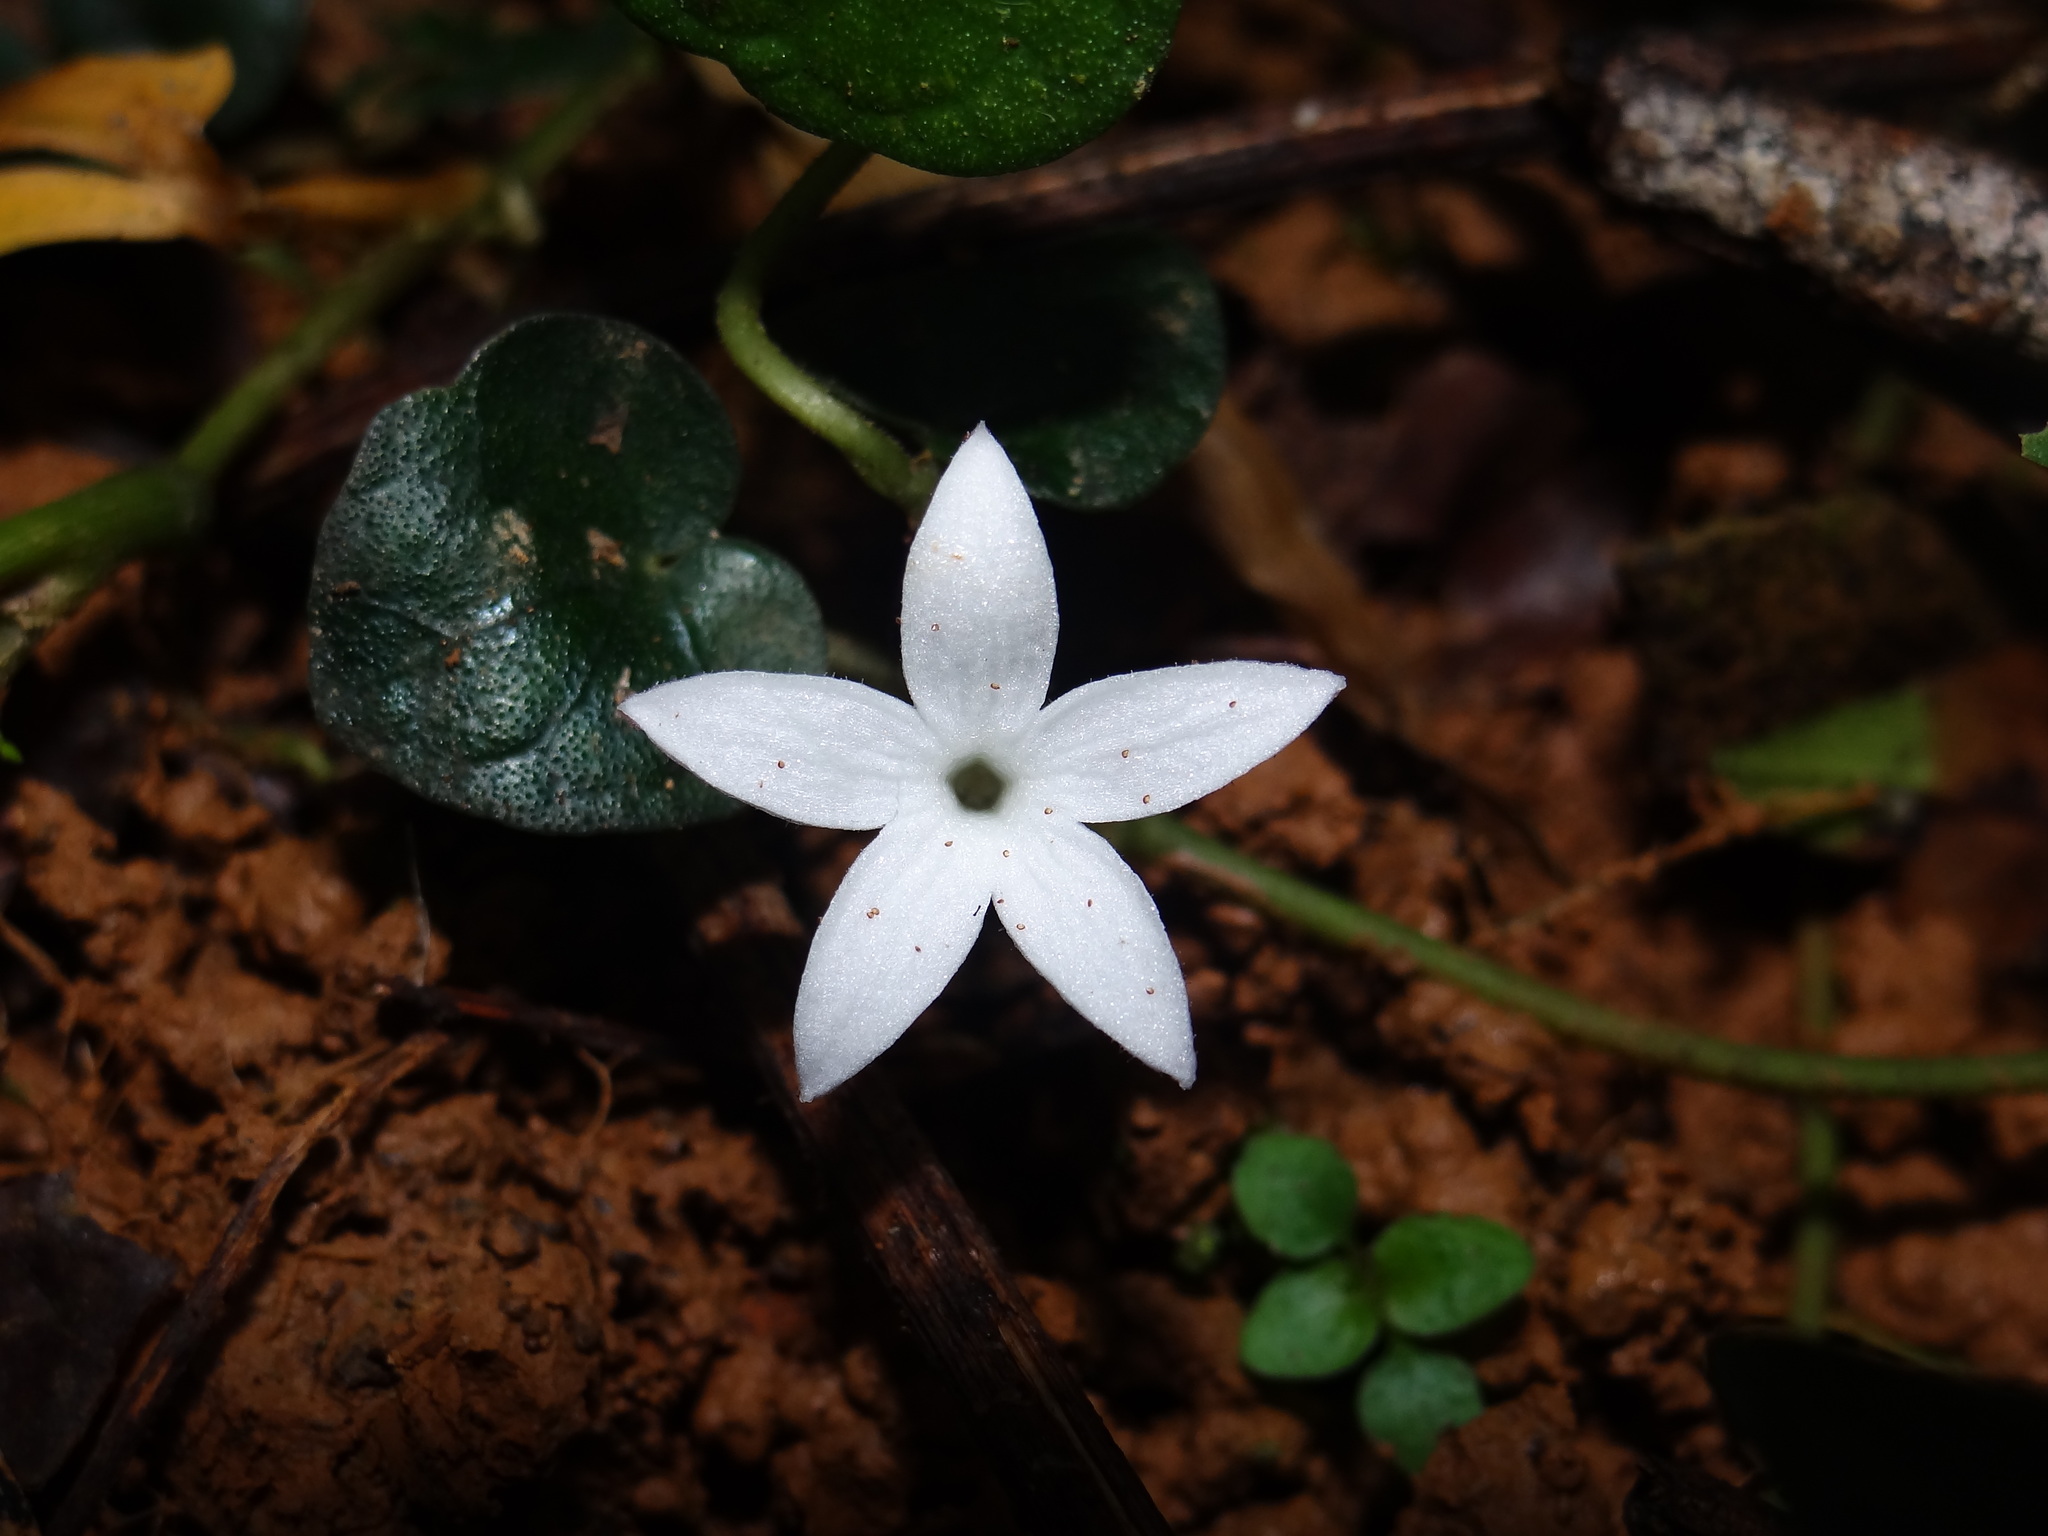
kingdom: Plantae
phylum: Tracheophyta
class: Magnoliopsida
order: Gentianales
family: Rubiaceae
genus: Geophila
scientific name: Geophila herbacea
